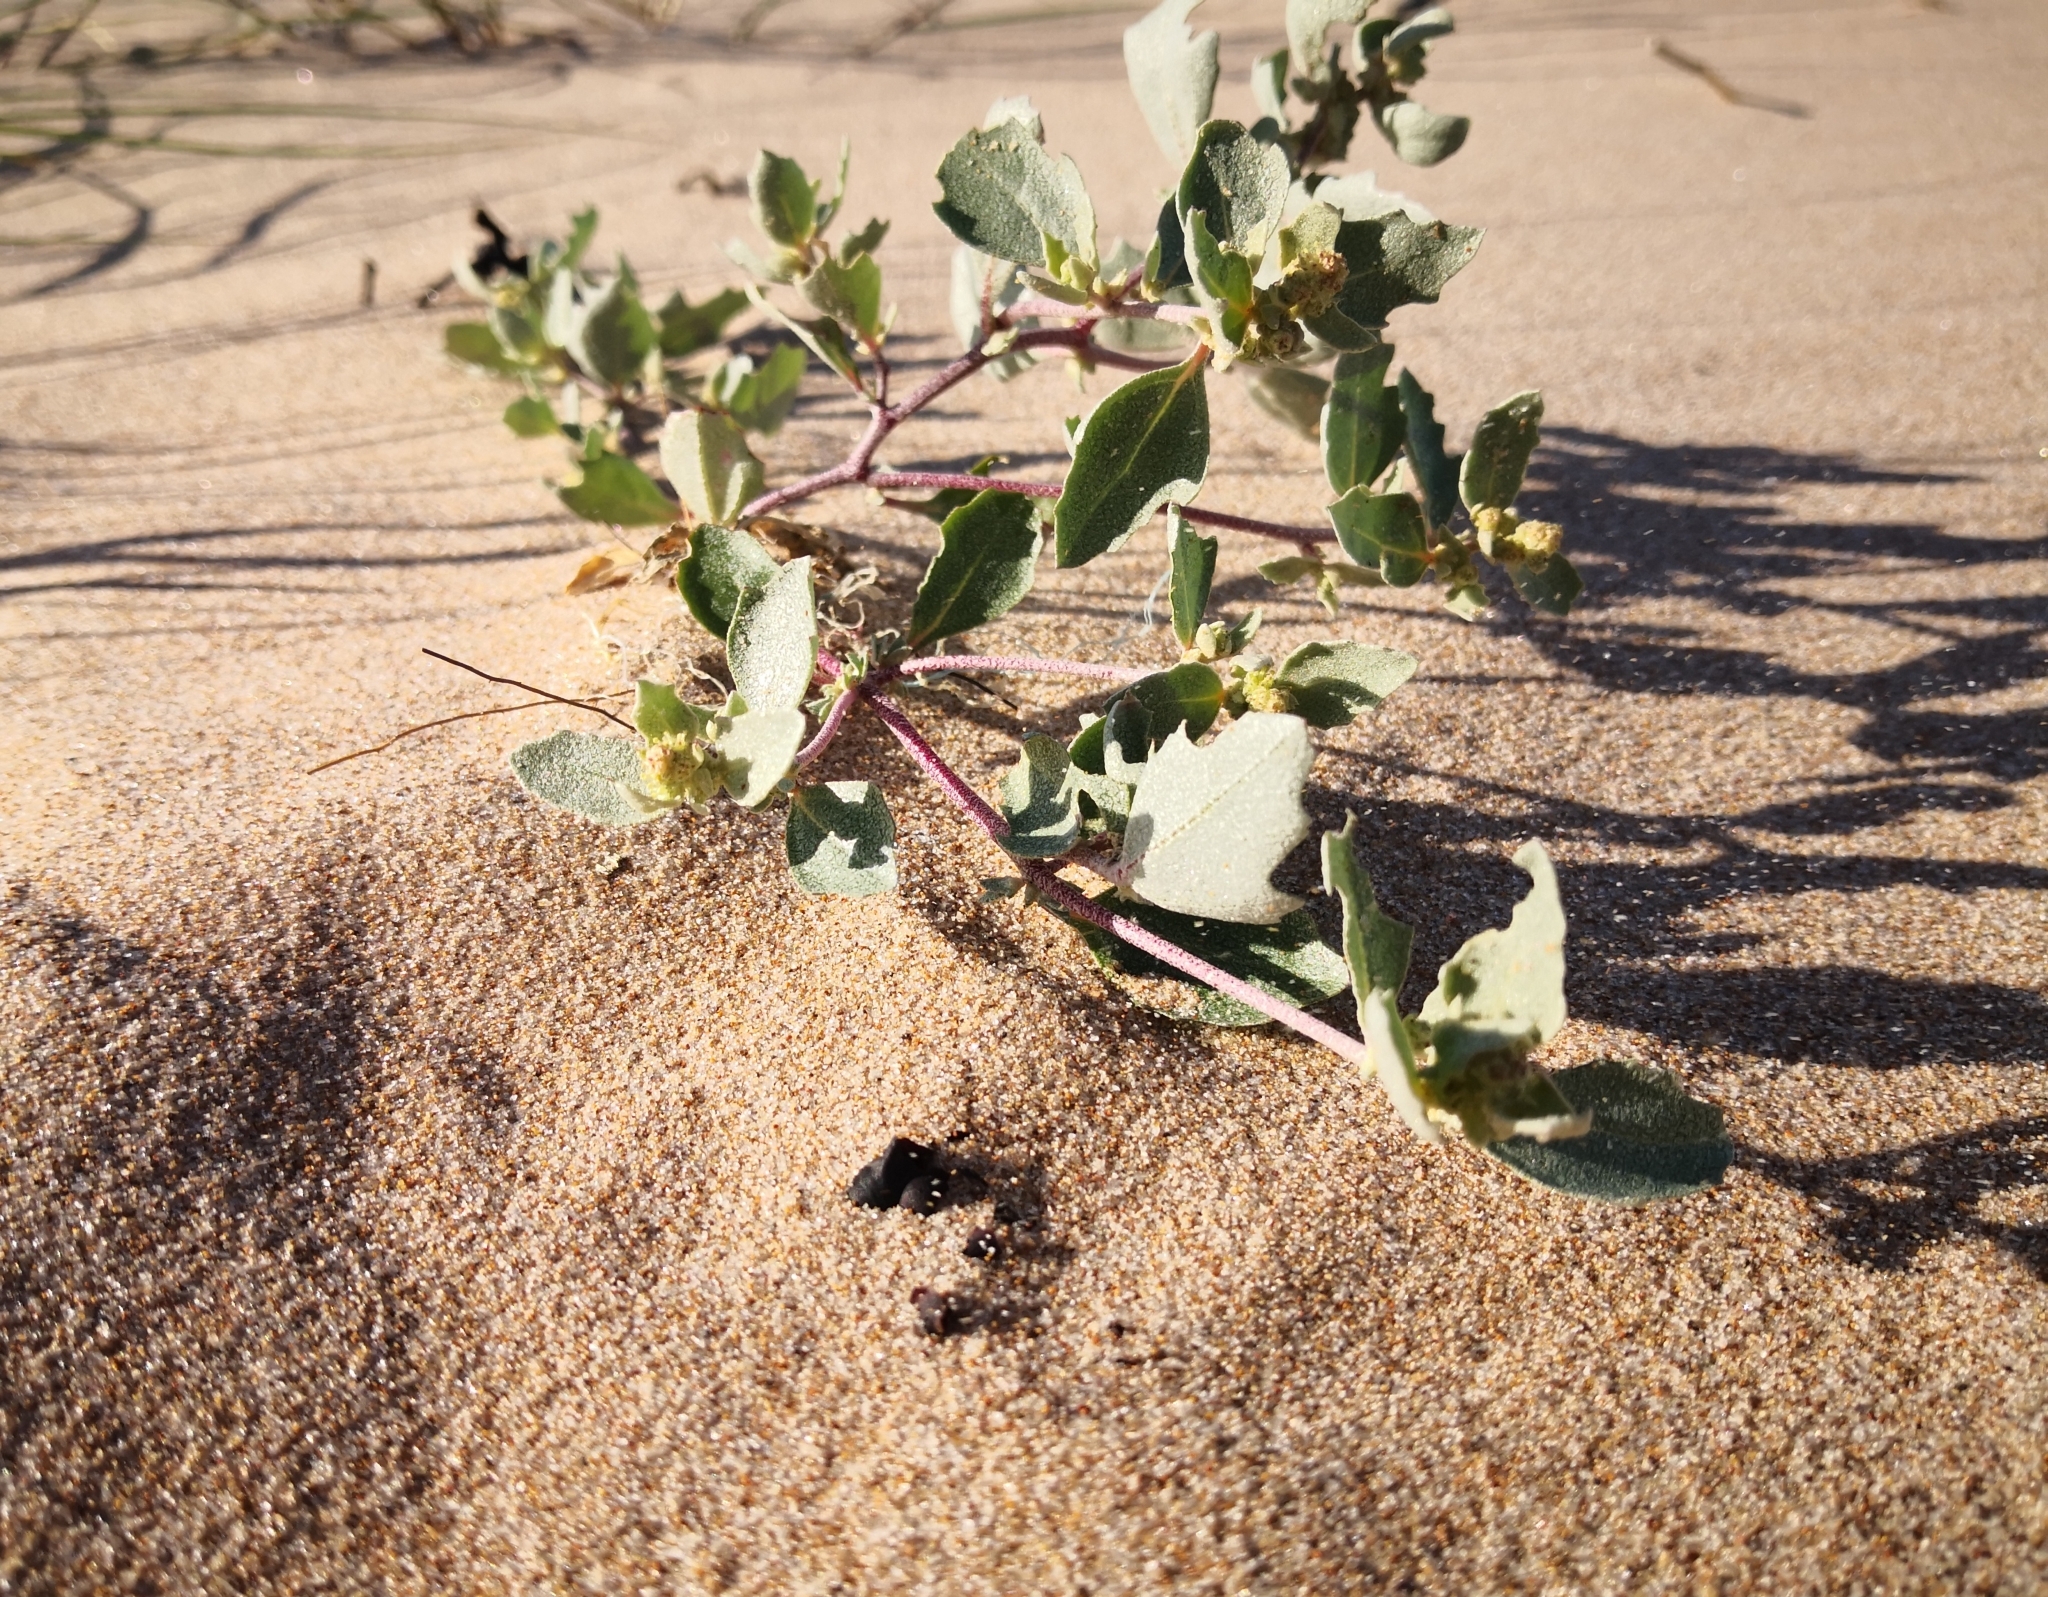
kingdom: Plantae
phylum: Tracheophyta
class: Magnoliopsida
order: Caryophyllales
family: Amaranthaceae
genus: Atriplex
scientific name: Atriplex laciniata
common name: Frosted orache
